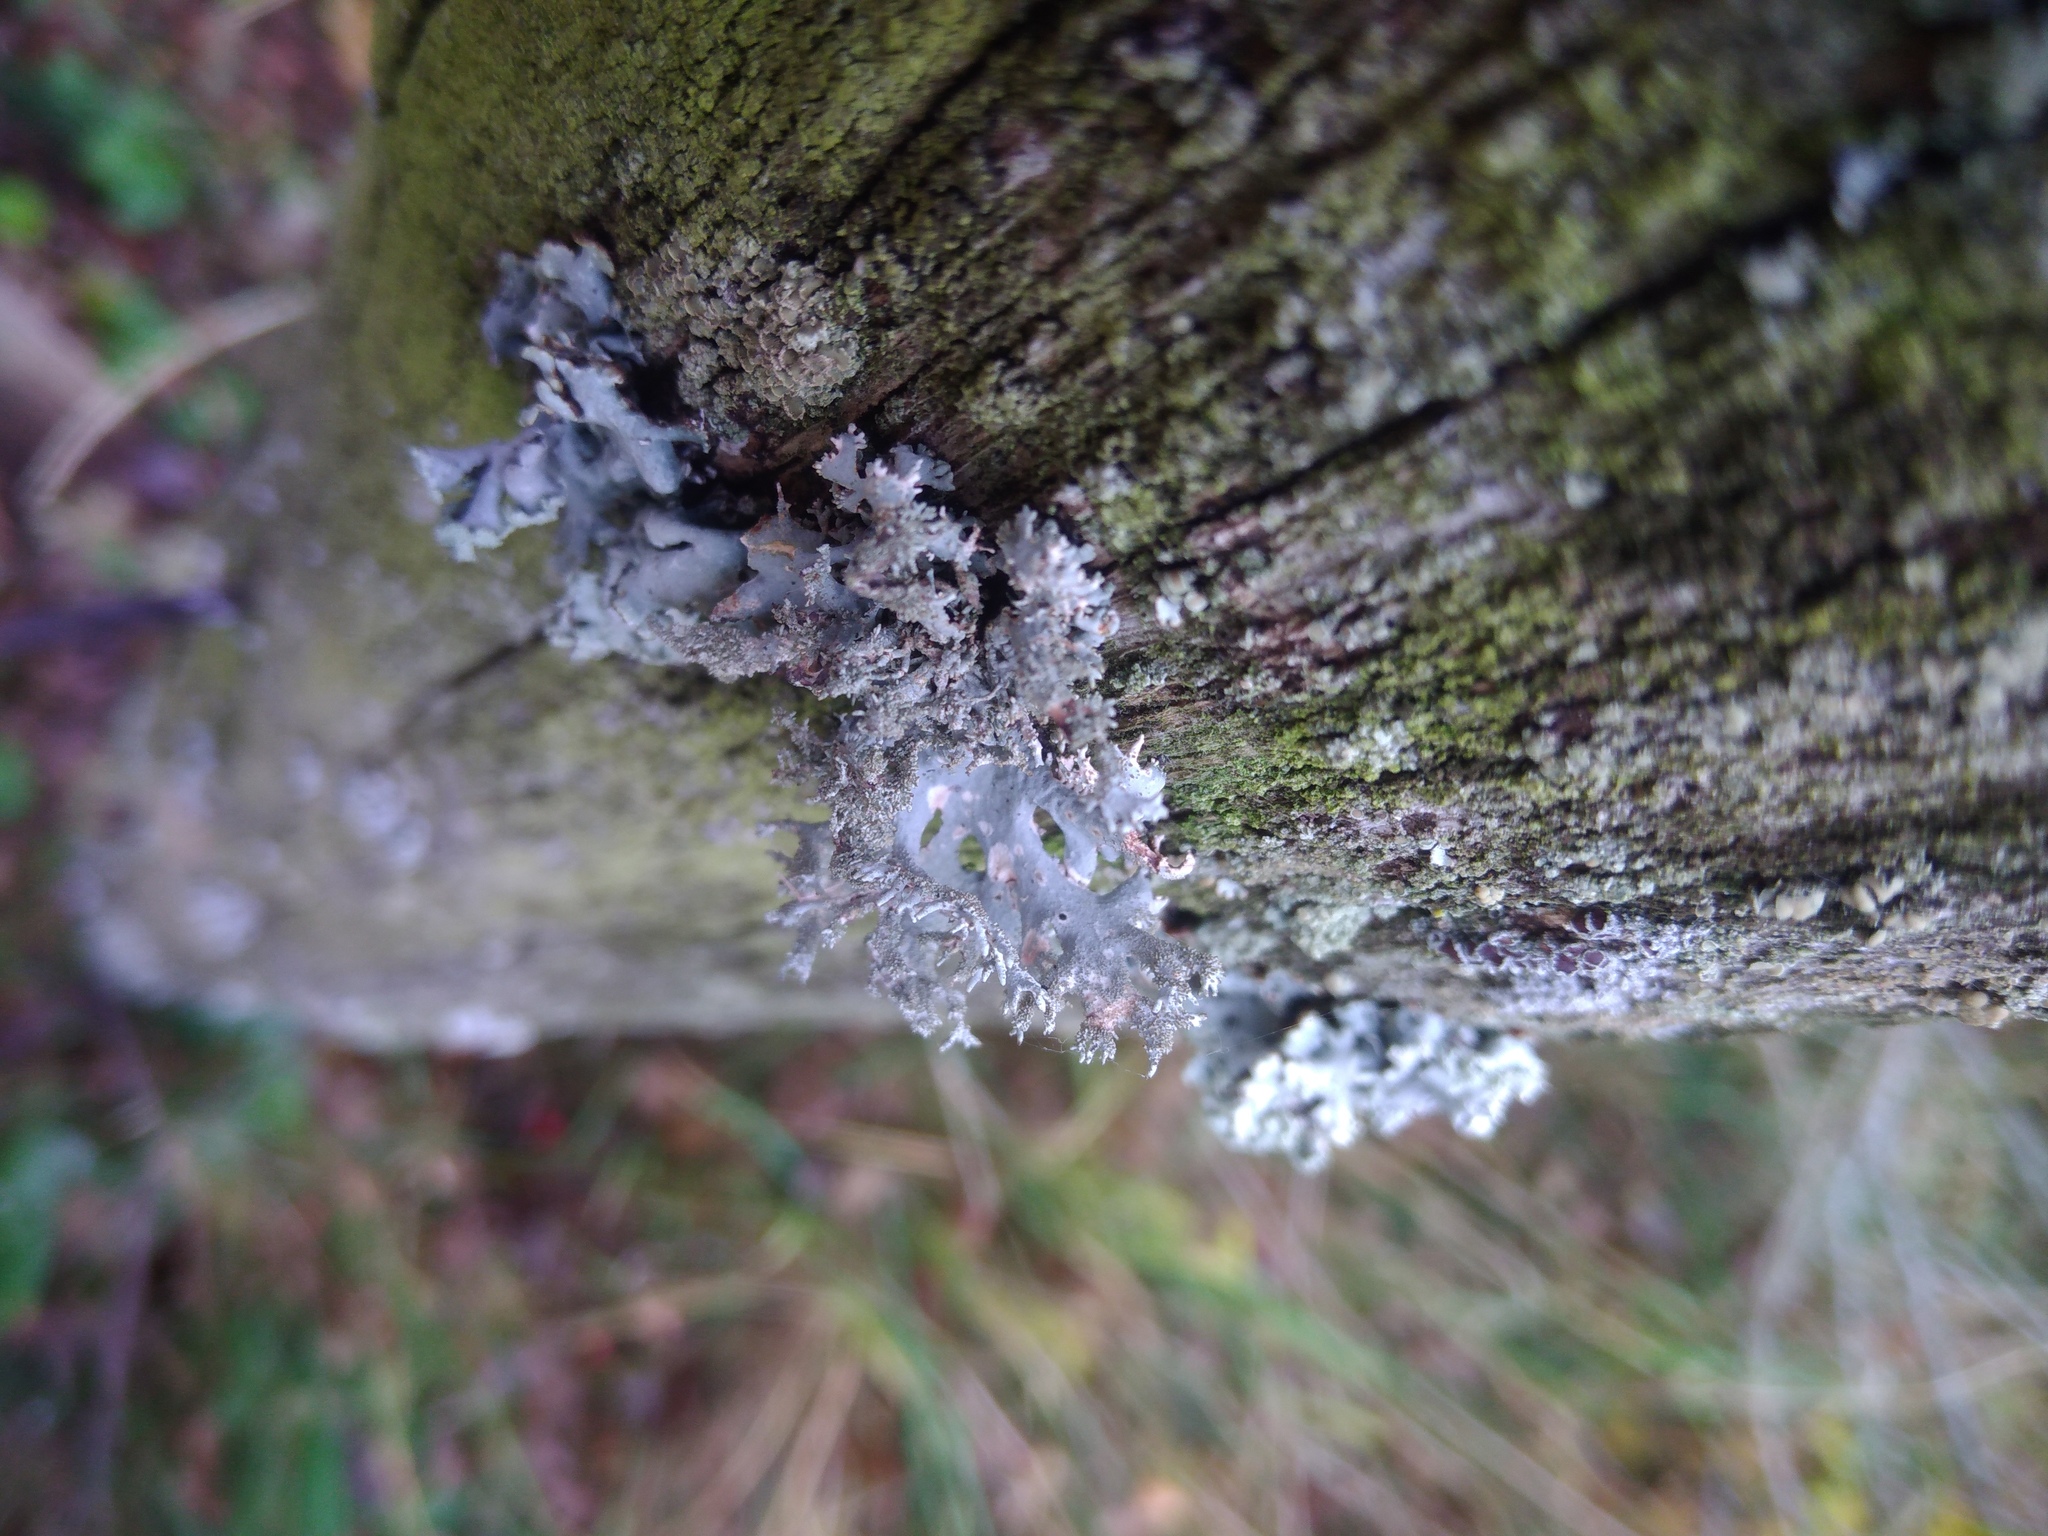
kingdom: Fungi
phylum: Ascomycota
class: Lecanoromycetes
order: Lecanorales
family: Parmeliaceae
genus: Pseudevernia
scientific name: Pseudevernia furfuracea
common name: Tree moss
